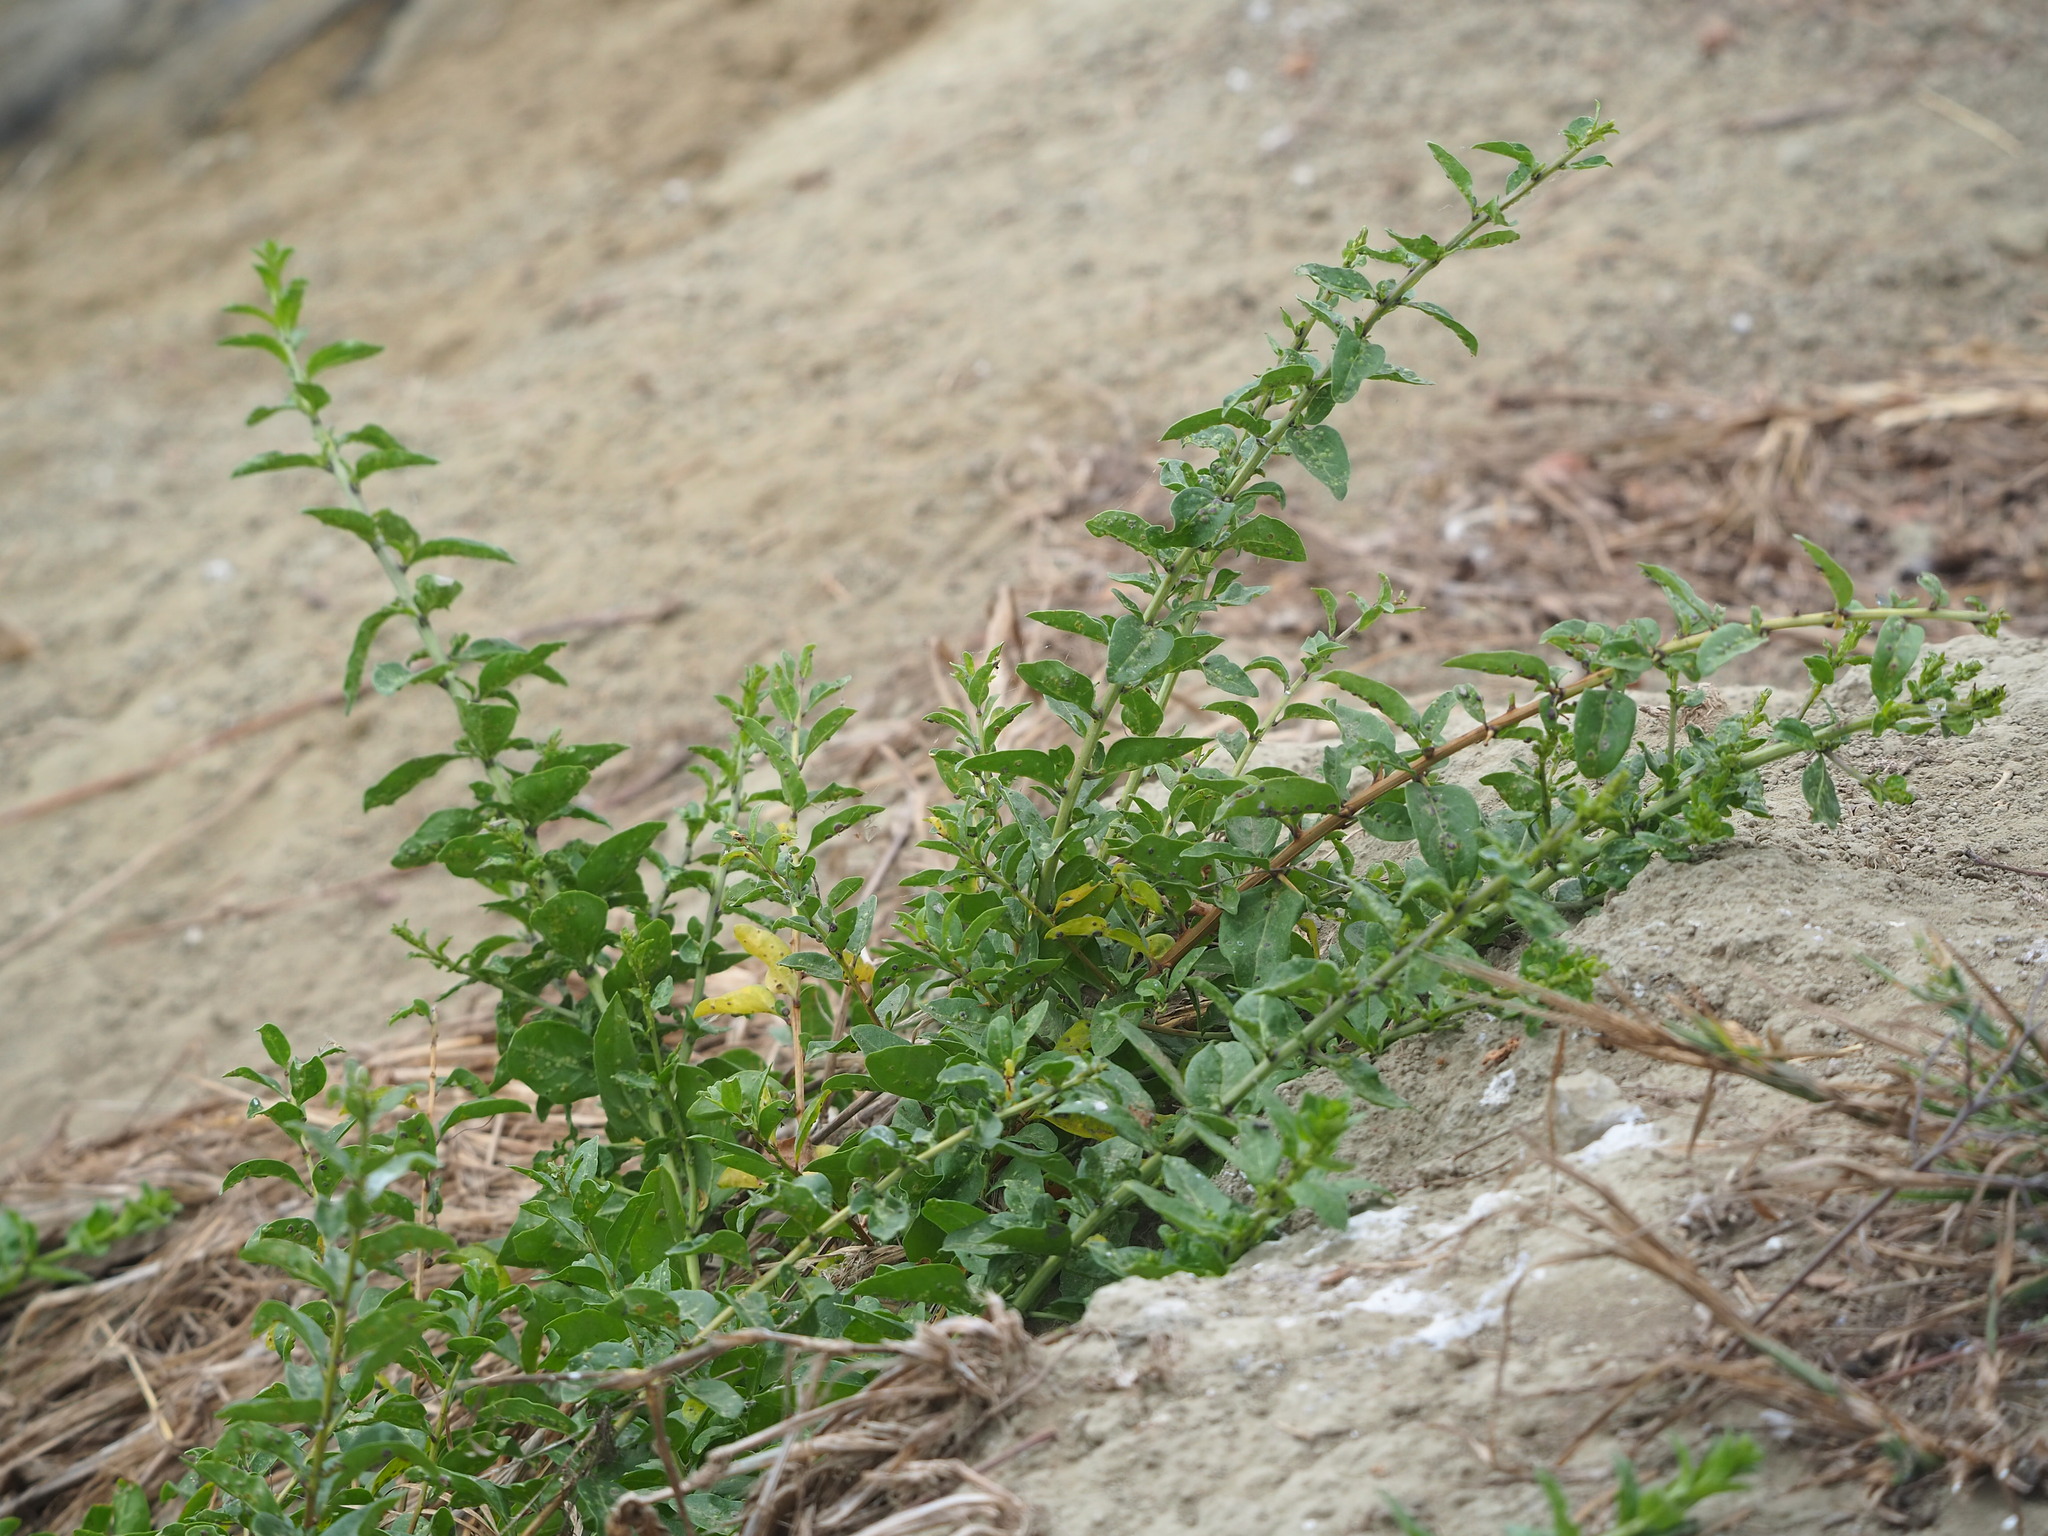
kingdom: Plantae
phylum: Tracheophyta
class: Magnoliopsida
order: Solanales
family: Solanaceae
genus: Lycium
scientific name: Lycium chinense
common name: Chinese teaplant
